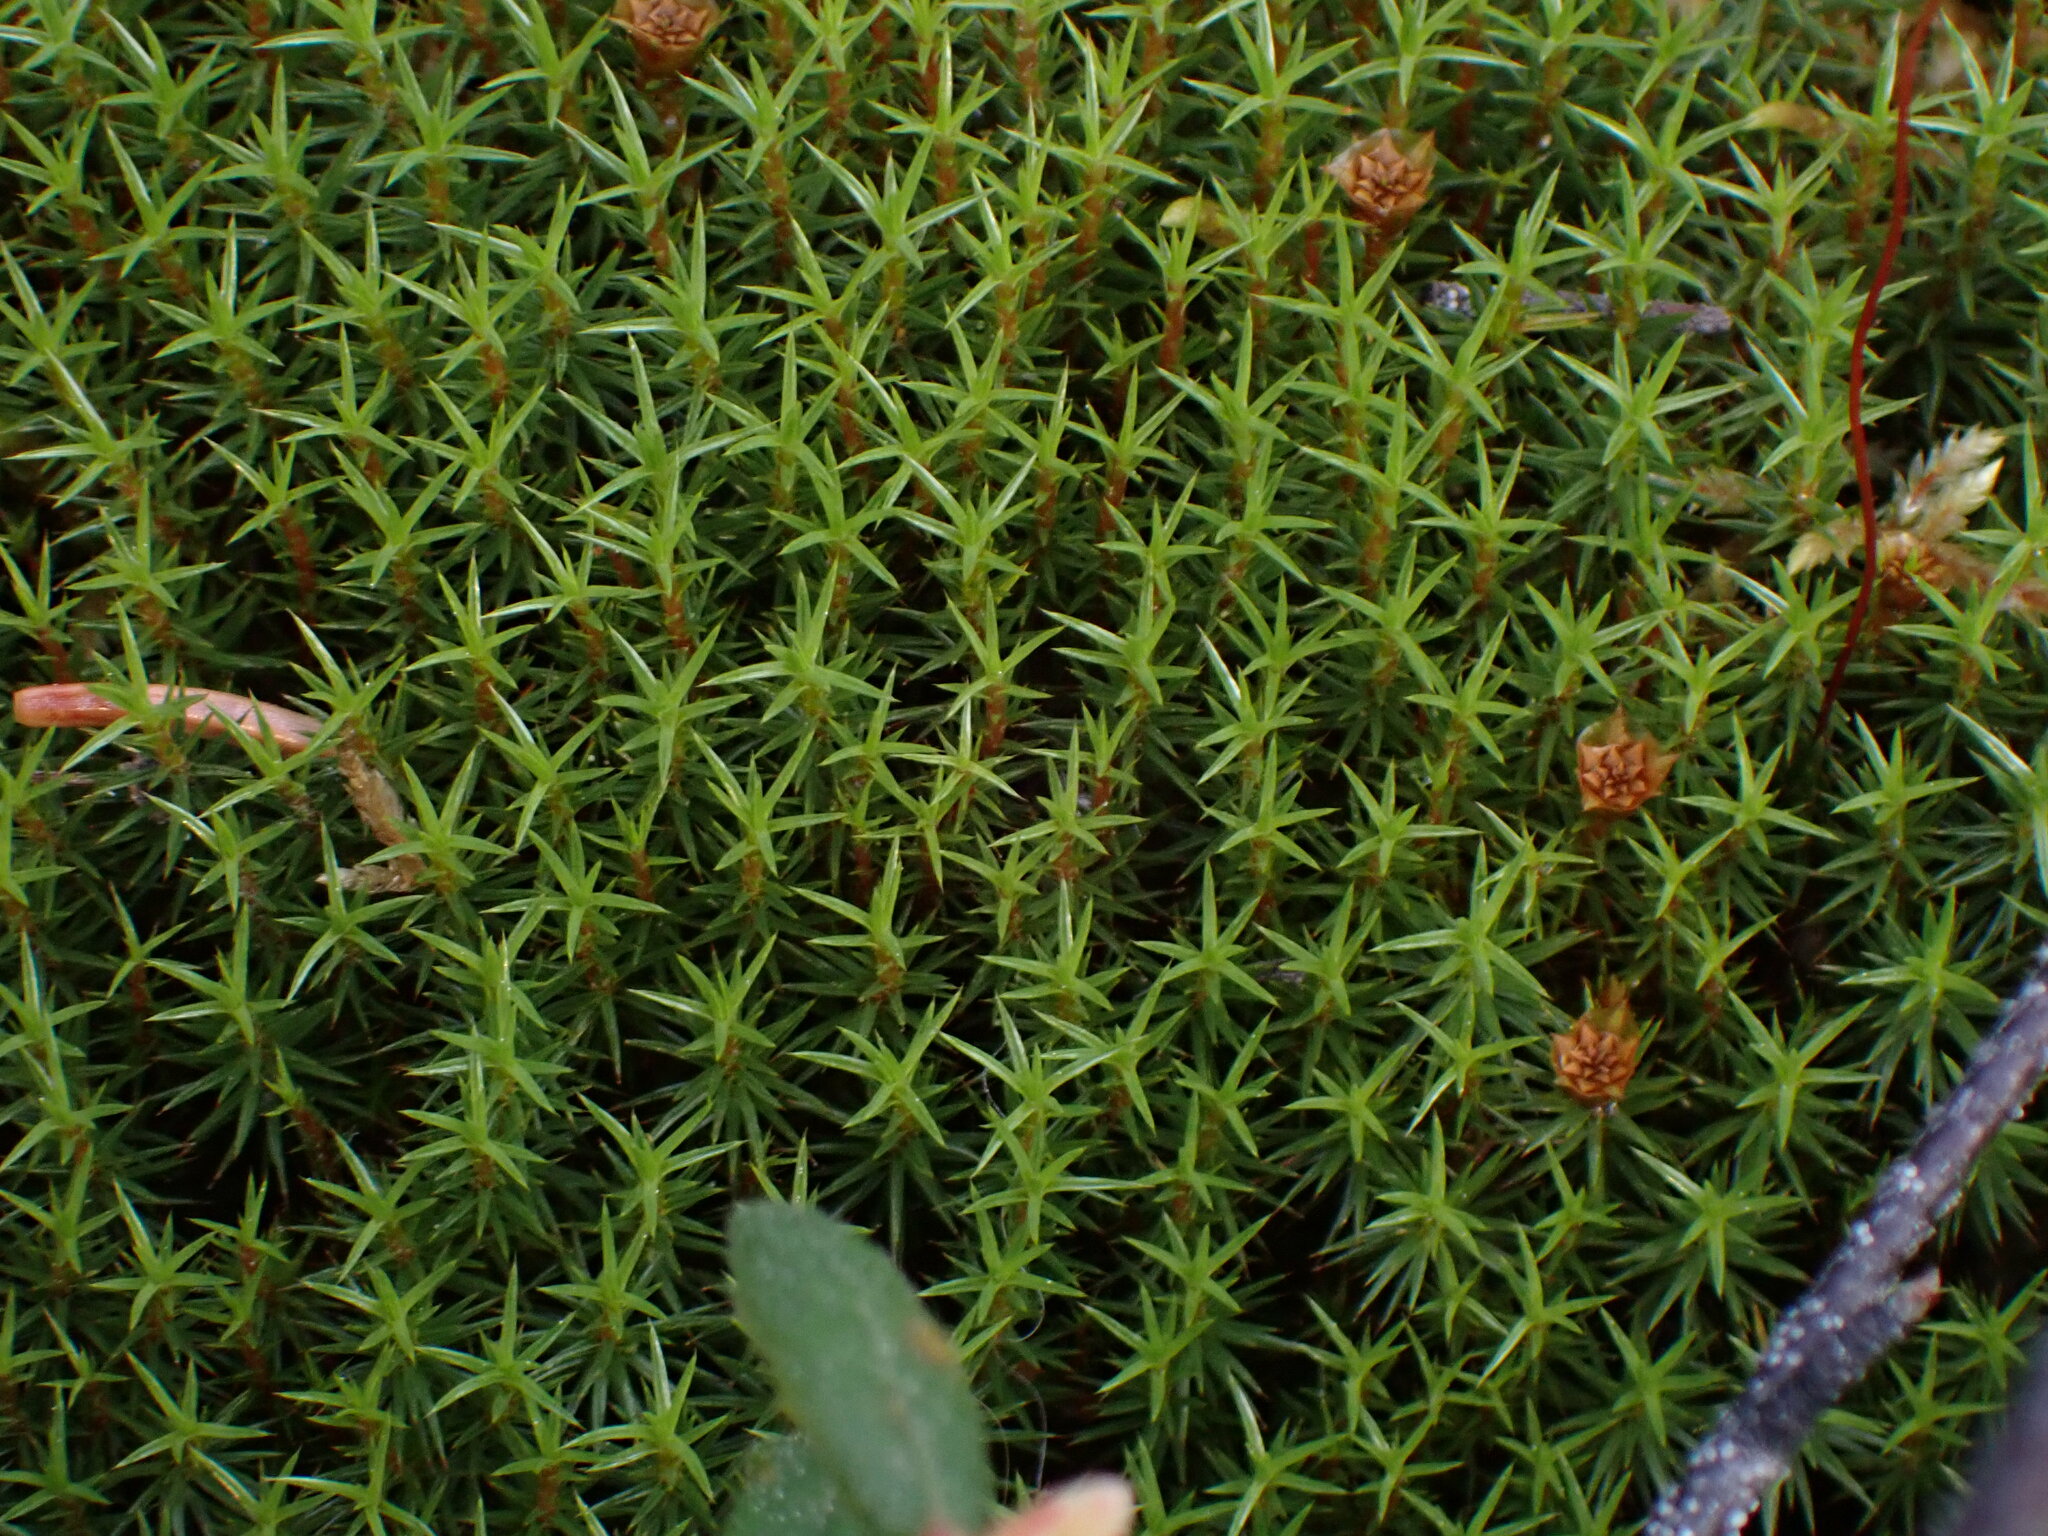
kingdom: Plantae
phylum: Bryophyta
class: Polytrichopsida
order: Polytrichales
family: Polytrichaceae
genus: Polytrichum
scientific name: Polytrichum juniperinum
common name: Juniper haircap moss
